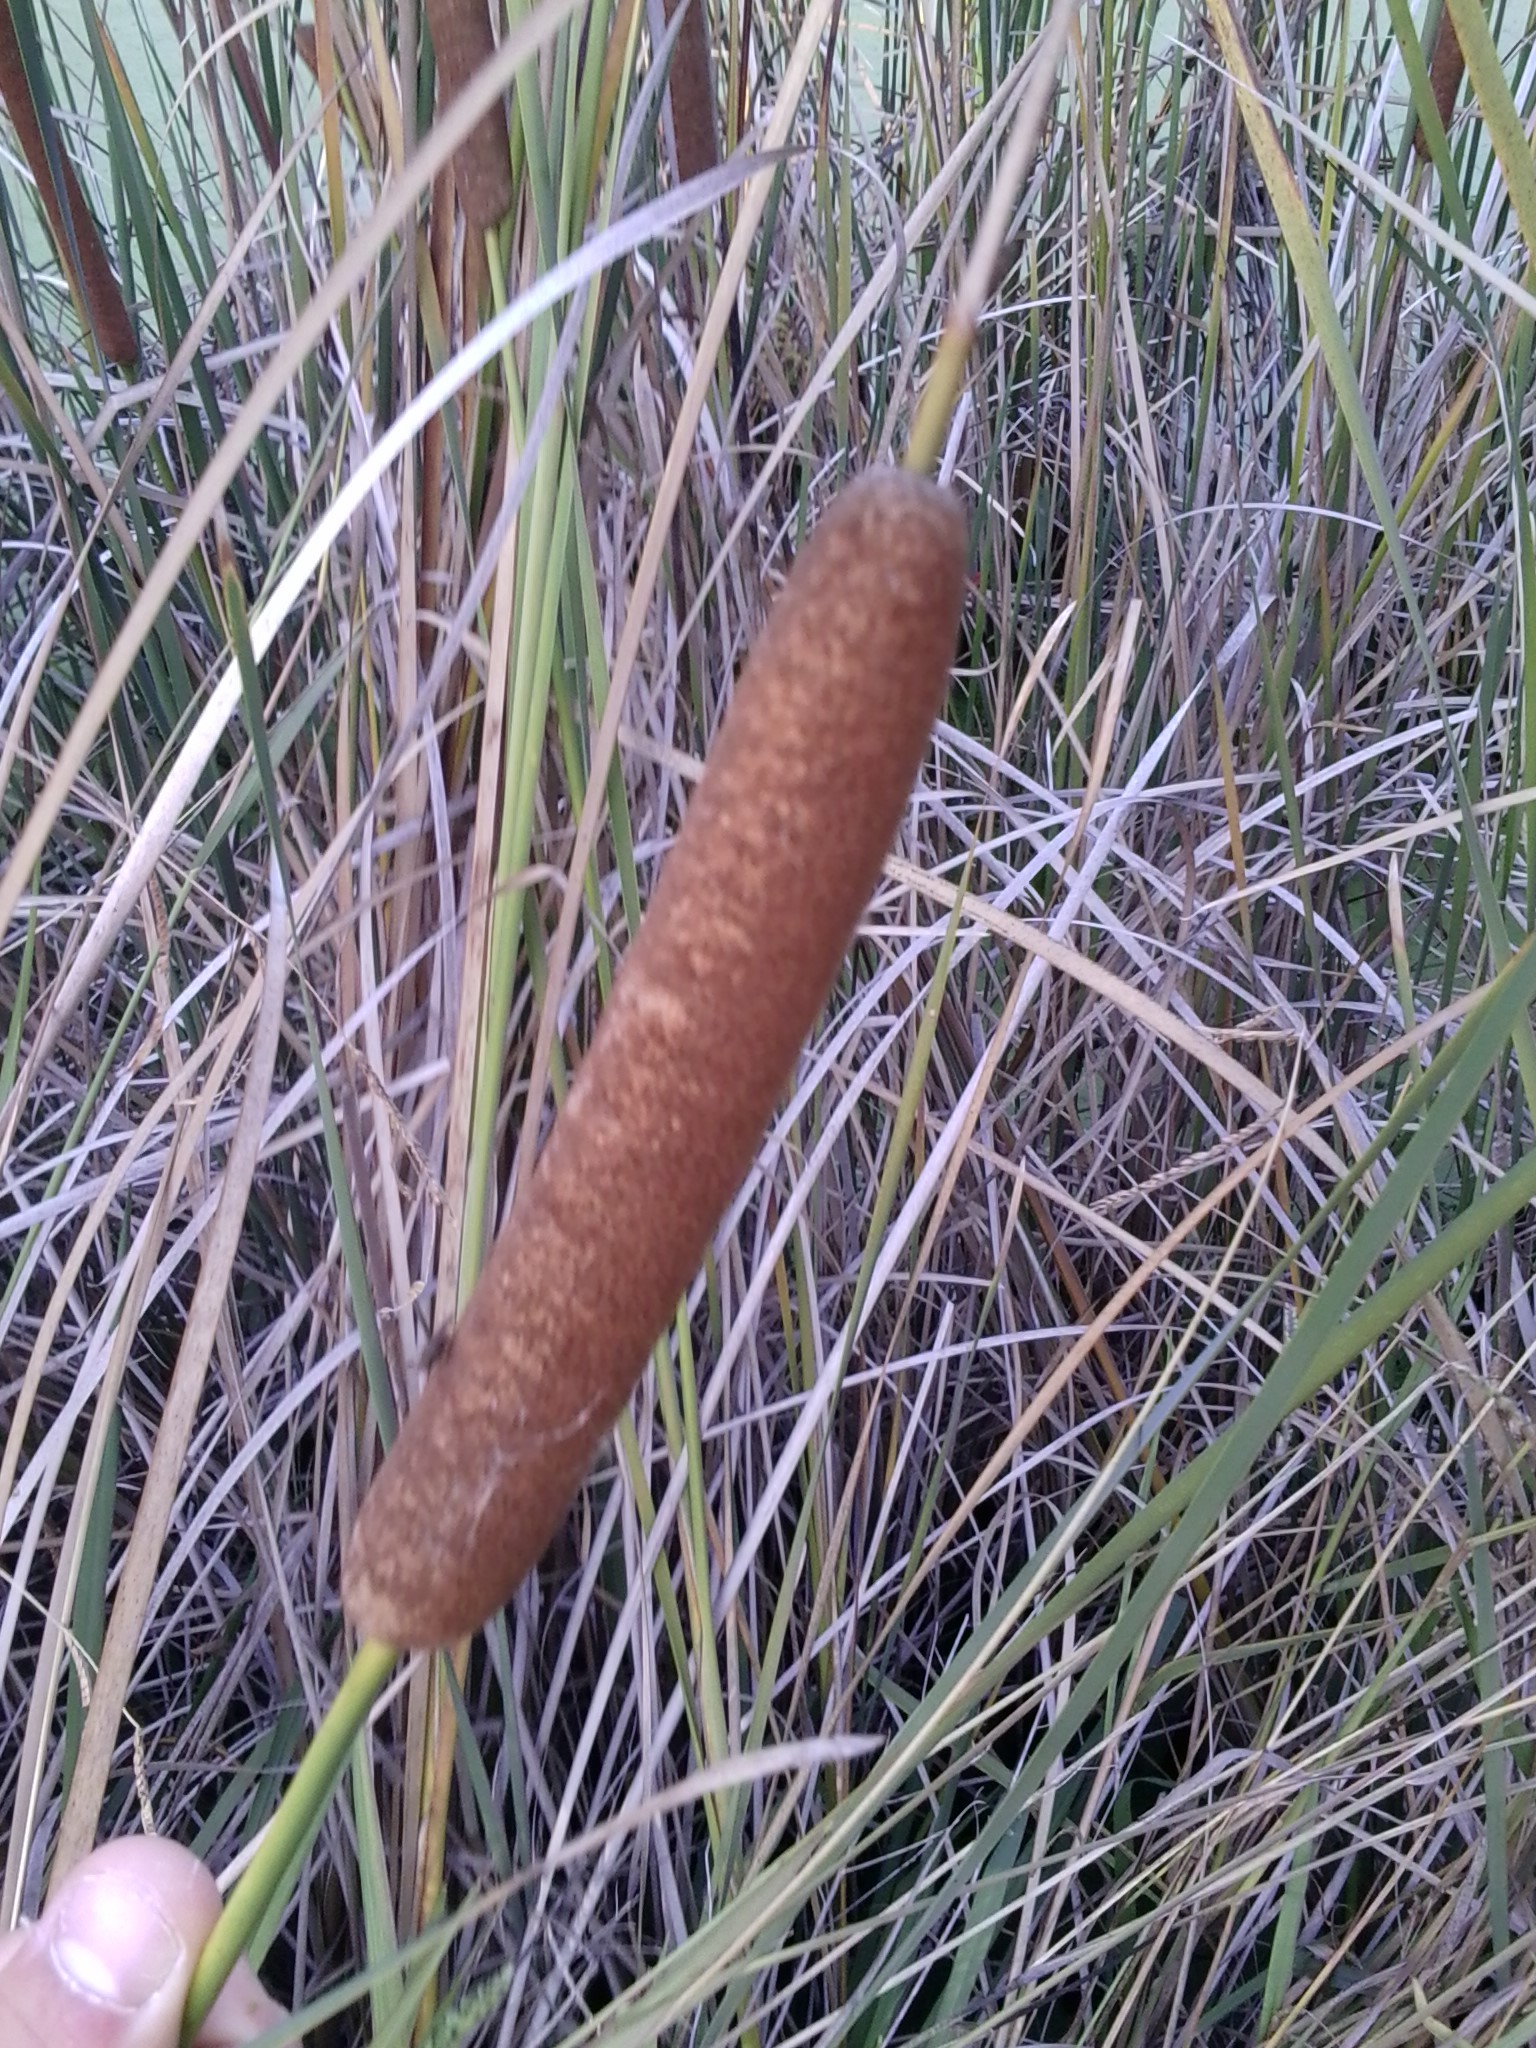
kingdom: Plantae
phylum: Tracheophyta
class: Liliopsida
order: Poales
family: Typhaceae
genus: Typha
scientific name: Typha latifolia
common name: Broadleaf cattail
